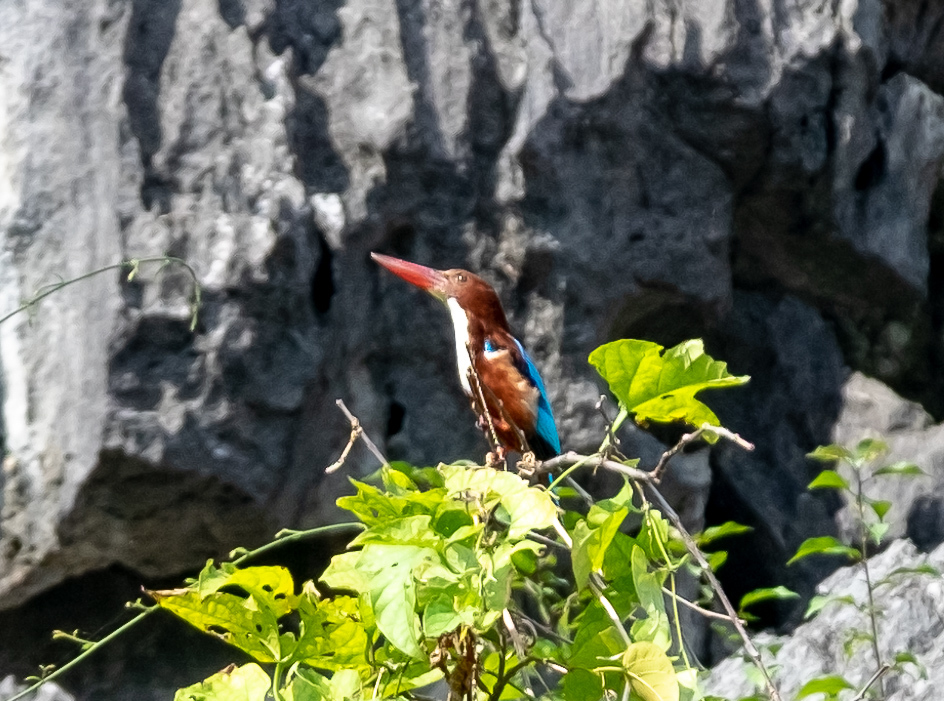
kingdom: Animalia
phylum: Chordata
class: Aves
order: Coraciiformes
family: Alcedinidae
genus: Halcyon
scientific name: Halcyon smyrnensis
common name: White-throated kingfisher
